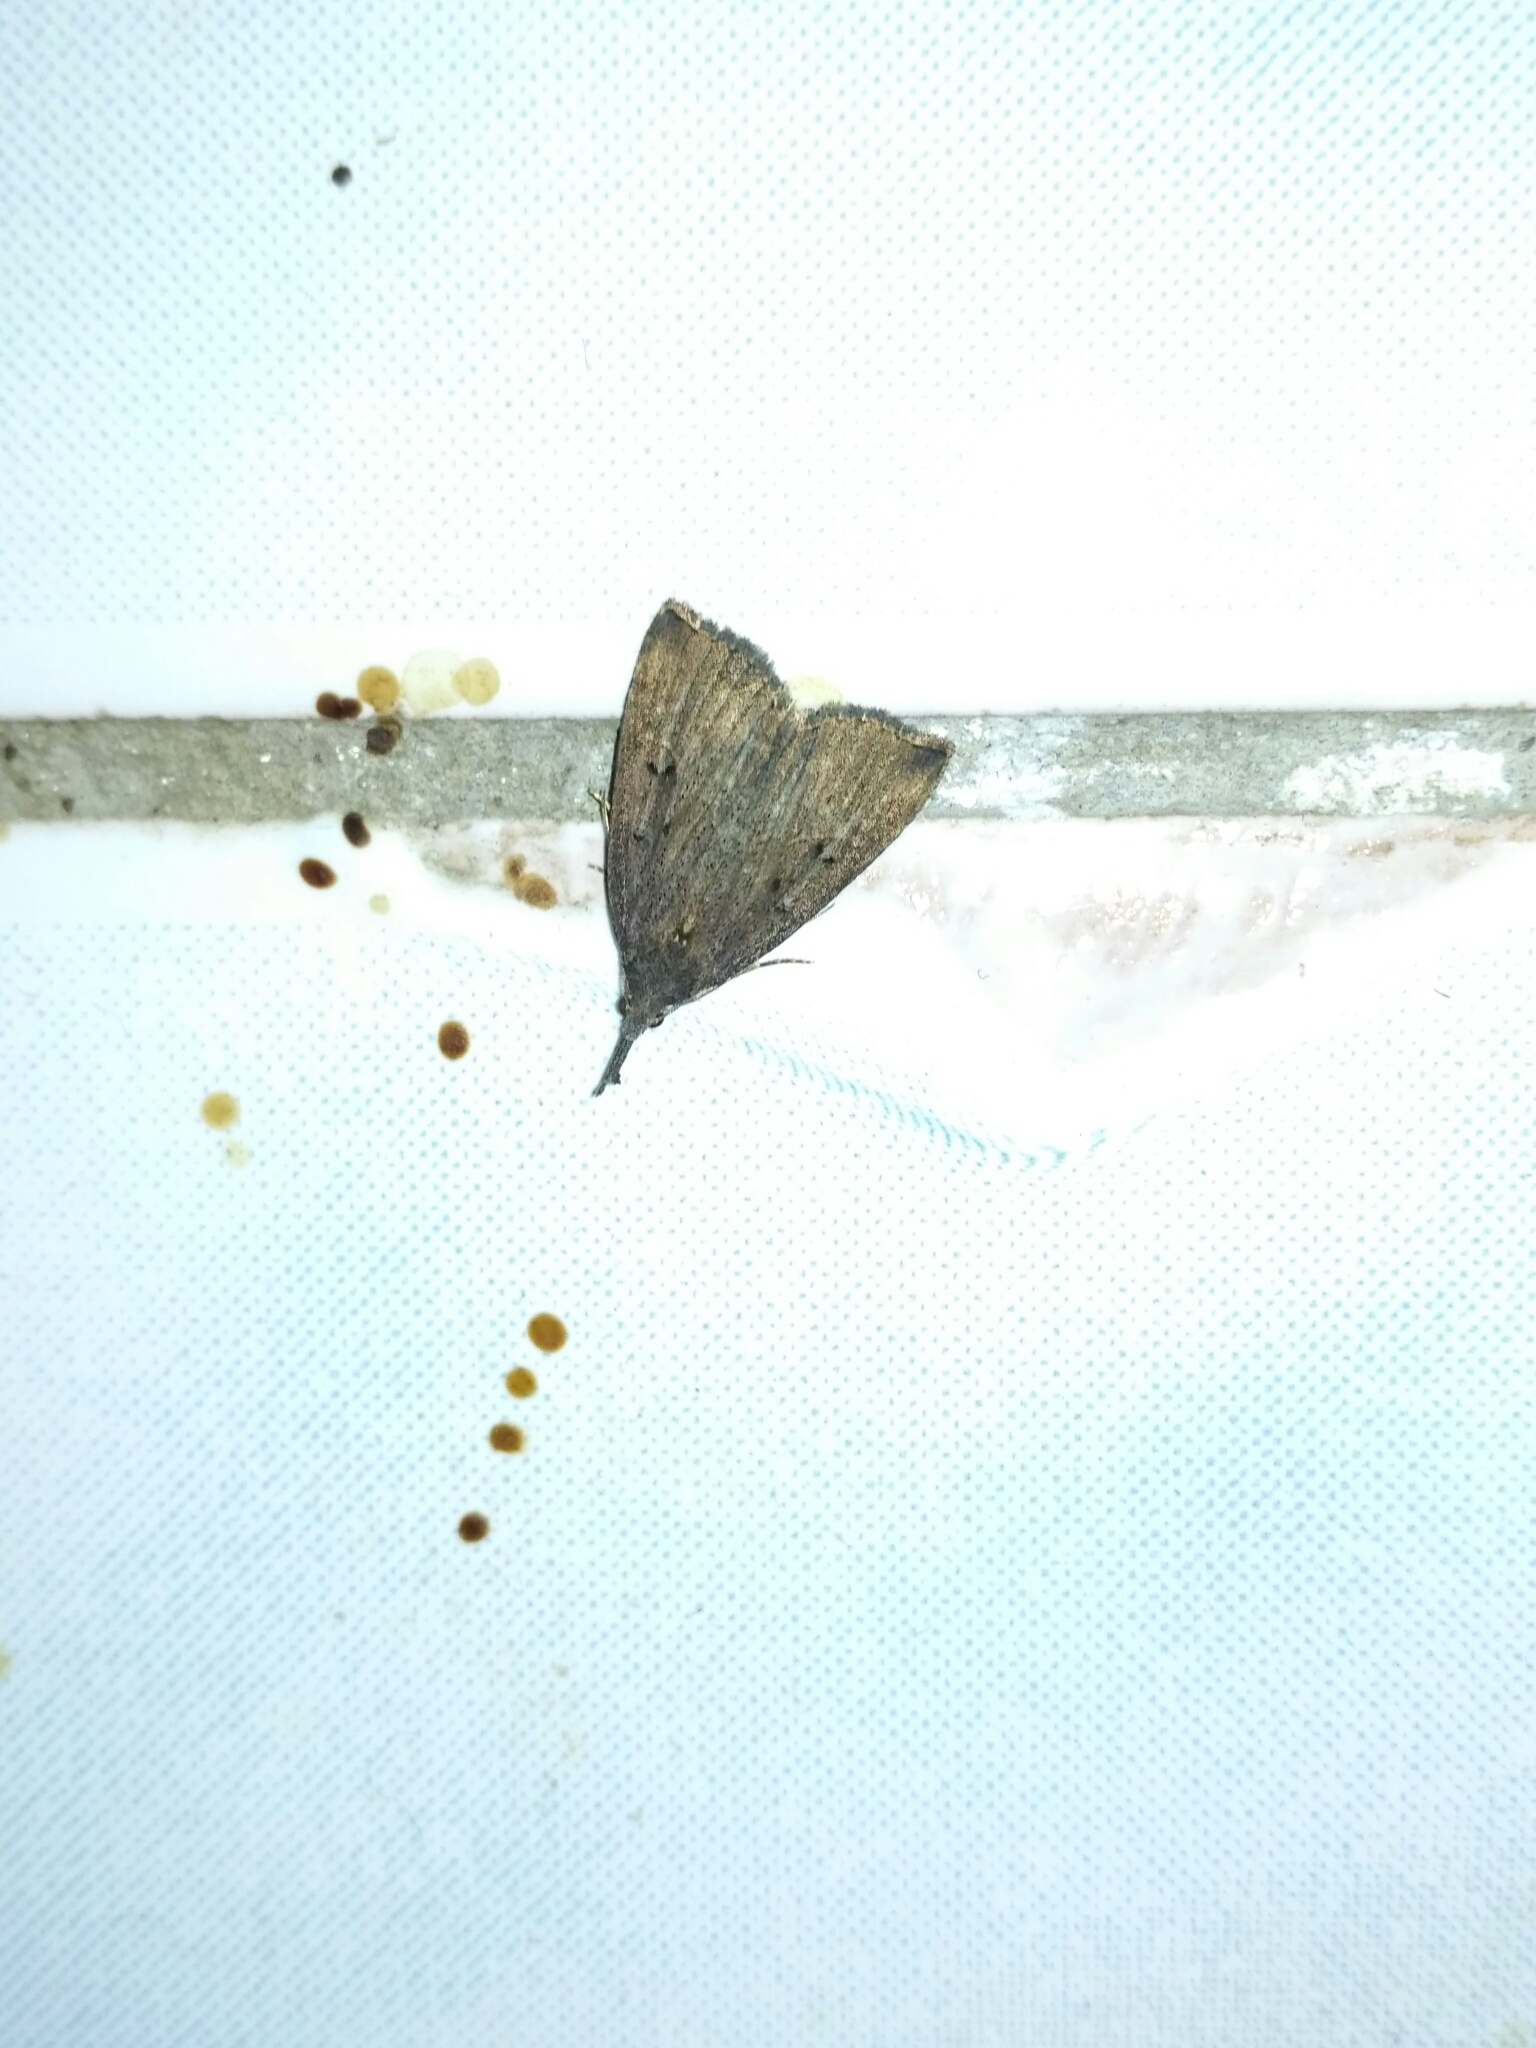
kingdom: Animalia
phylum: Arthropoda
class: Insecta
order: Lepidoptera
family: Erebidae
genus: Hypena
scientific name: Hypena rostralis
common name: Buttoned snout
